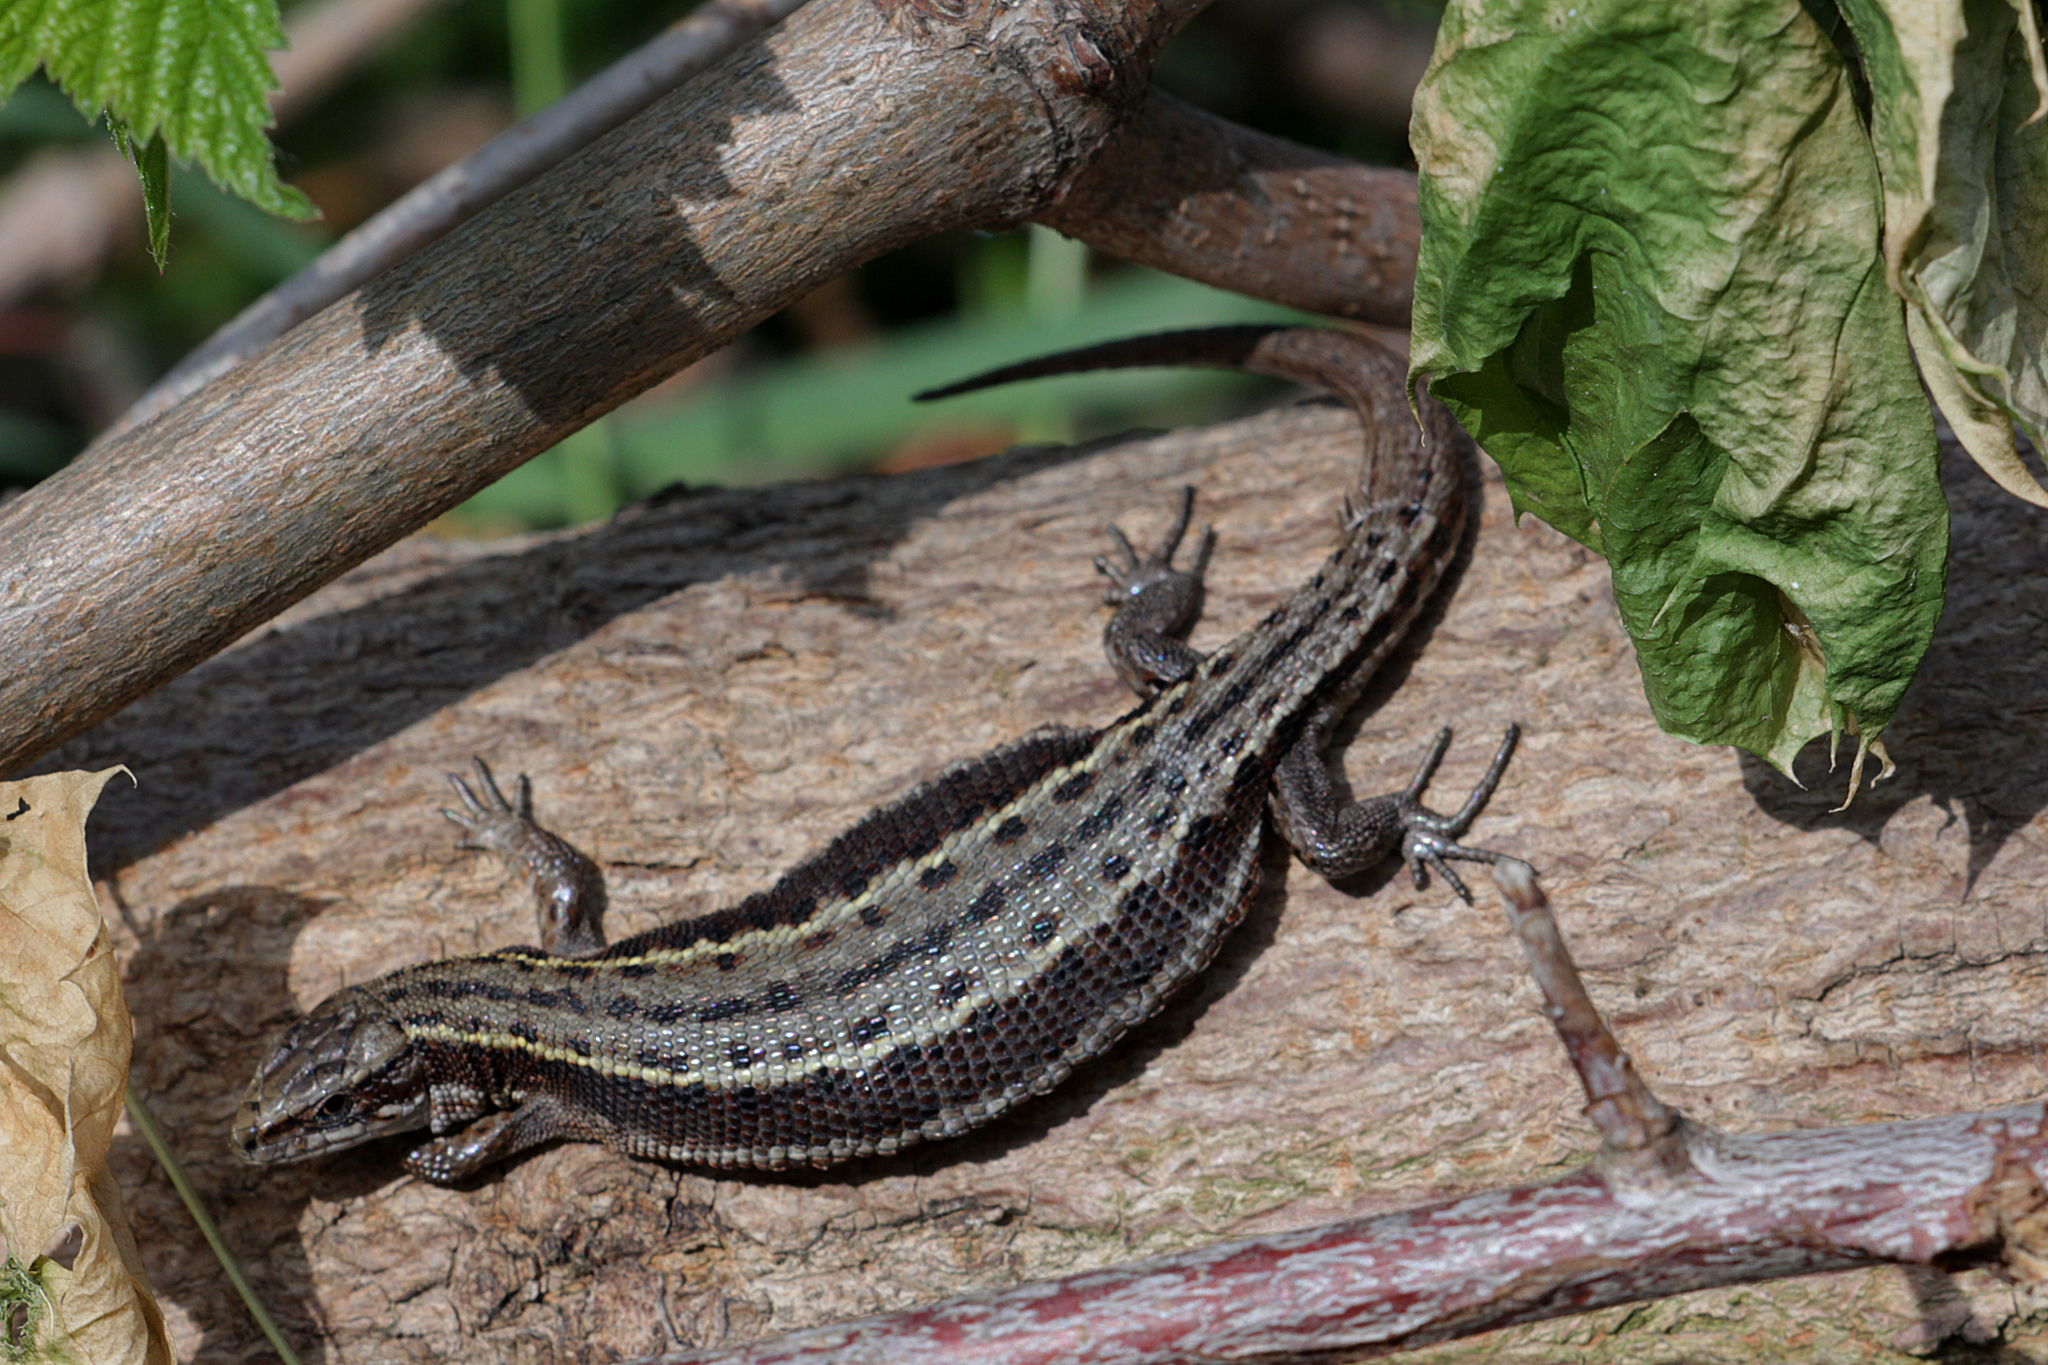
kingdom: Animalia
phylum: Chordata
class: Squamata
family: Lacertidae
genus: Zootoca
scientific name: Zootoca vivipara
